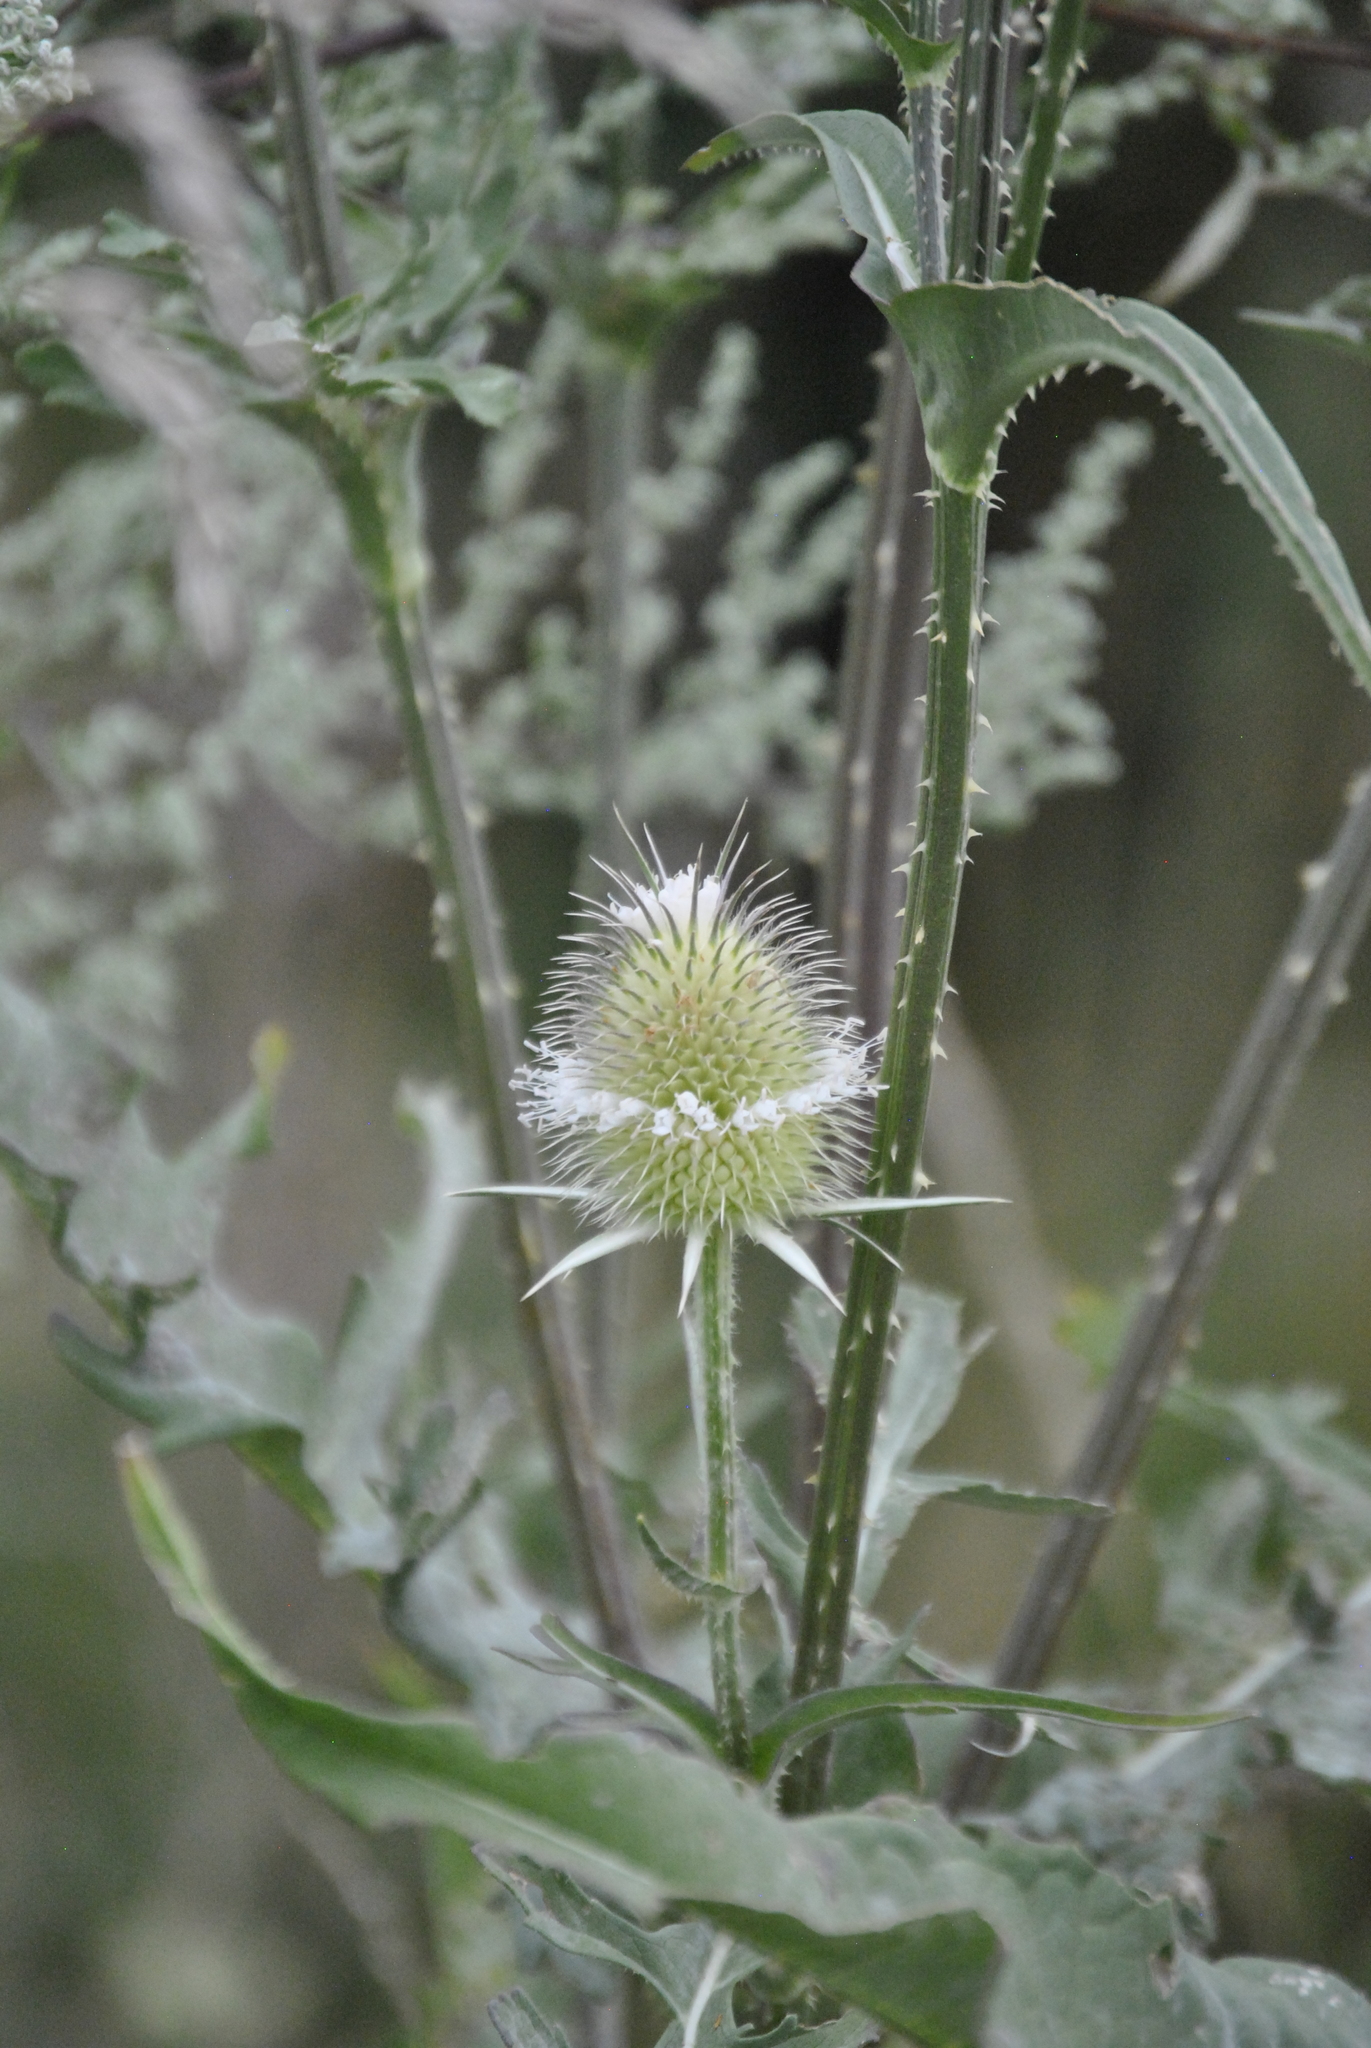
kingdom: Plantae
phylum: Tracheophyta
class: Magnoliopsida
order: Dipsacales
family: Caprifoliaceae
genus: Dipsacus
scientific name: Dipsacus laciniatus
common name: Cut-leaved teasel
